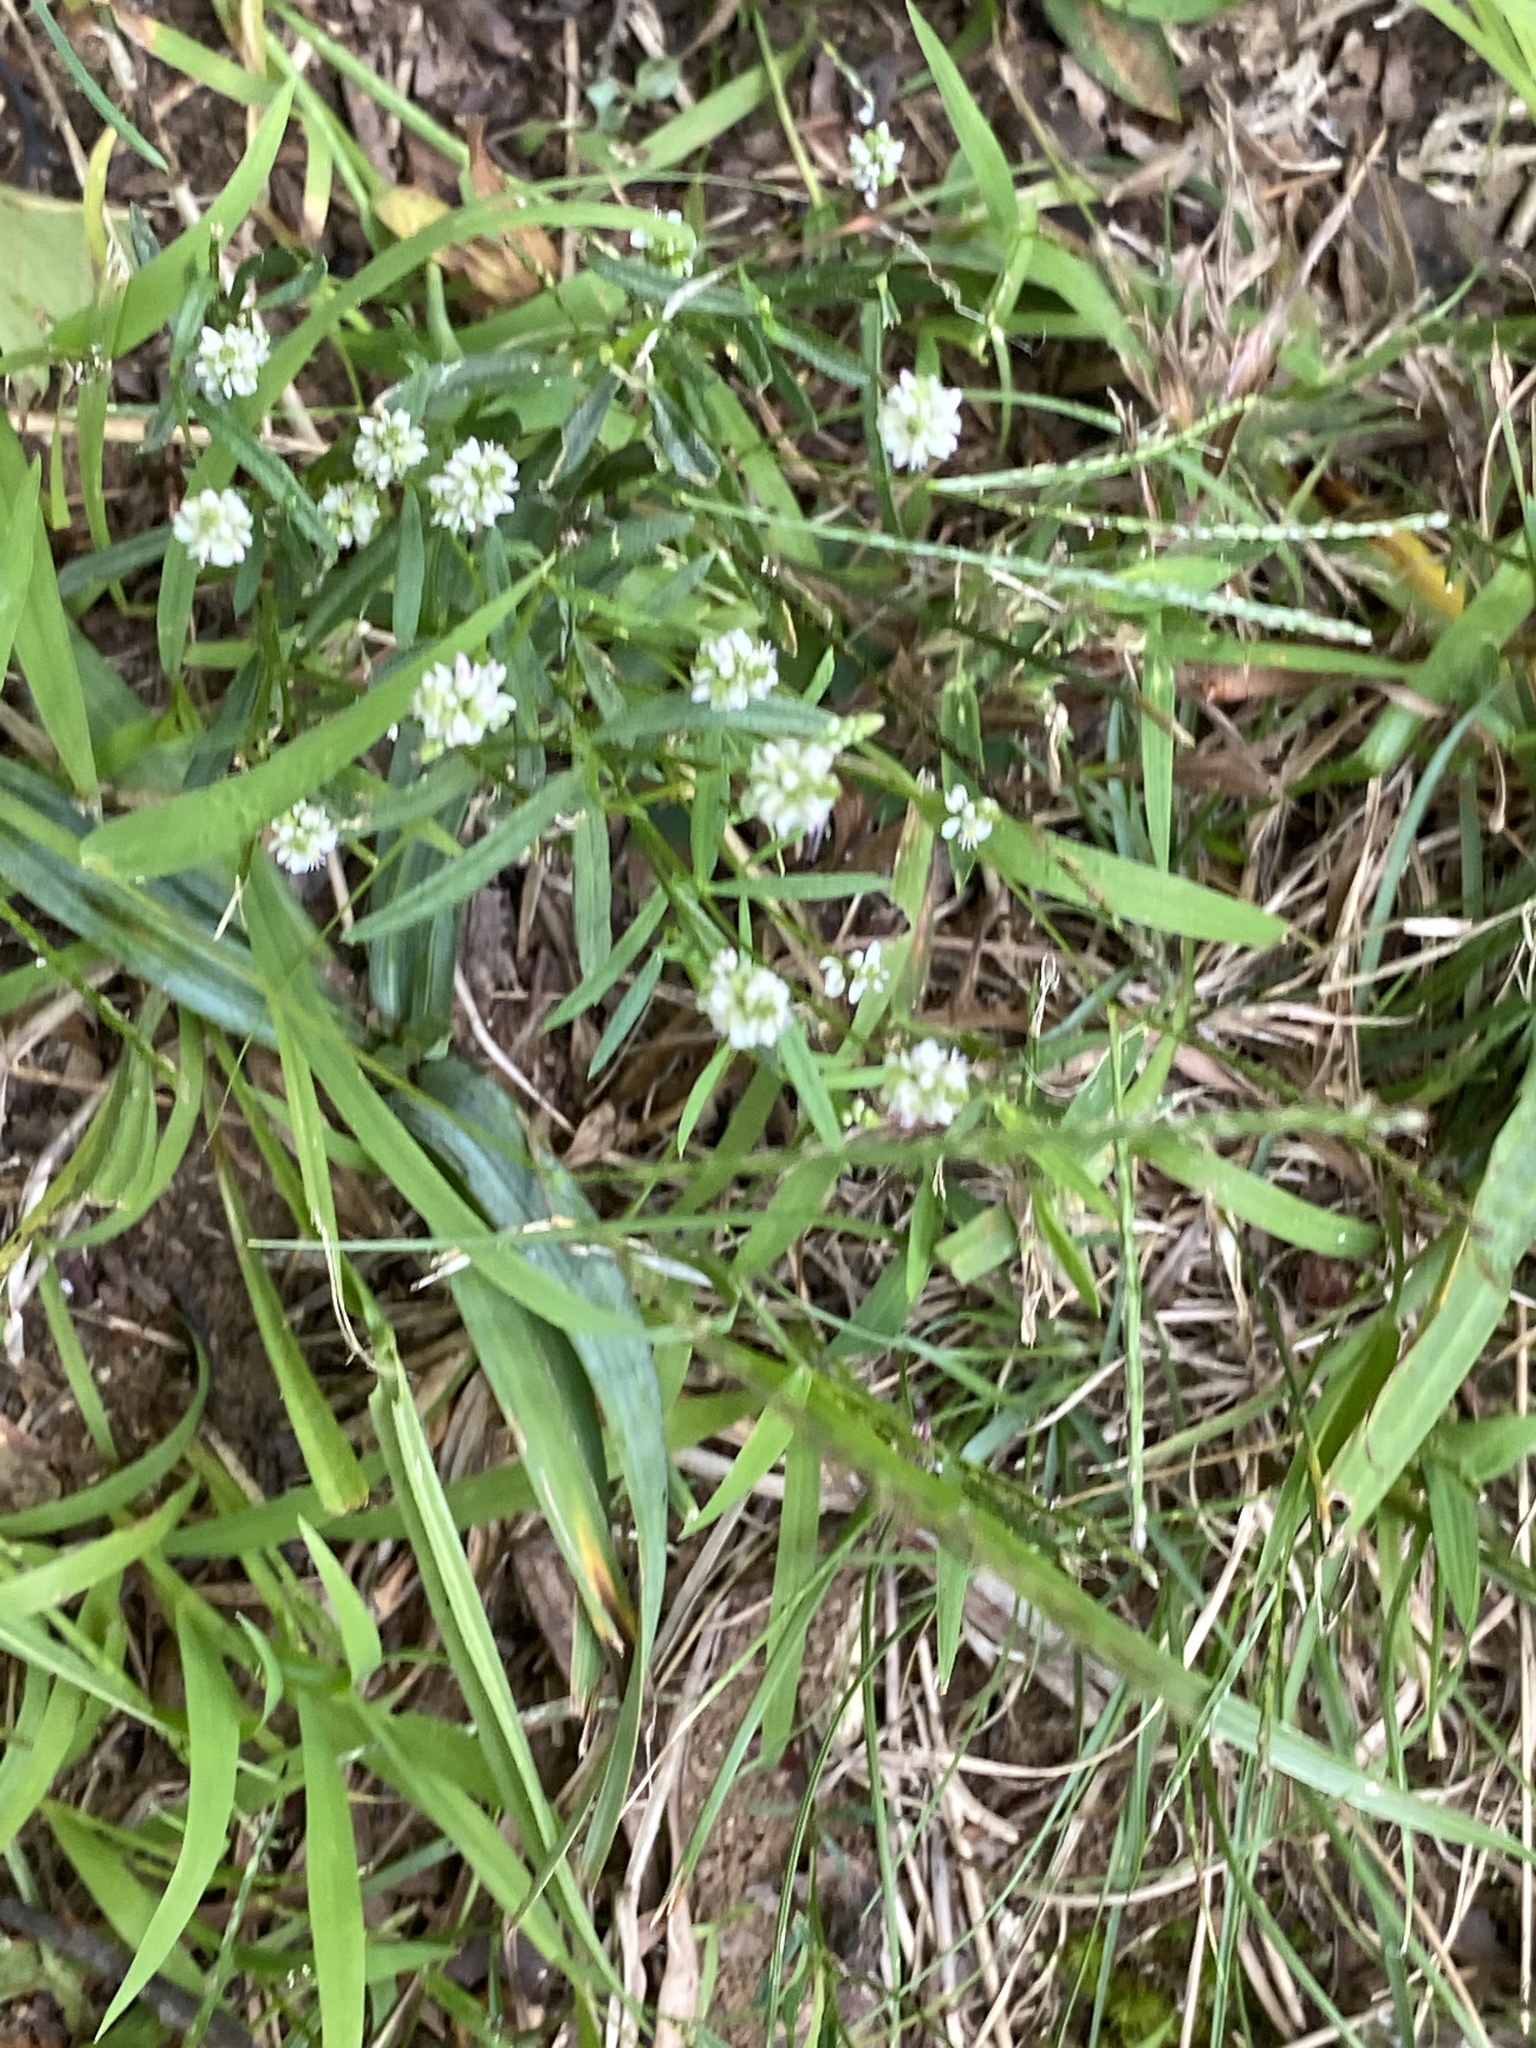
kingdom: Plantae
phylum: Tracheophyta
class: Magnoliopsida
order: Fabales
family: Polygalaceae
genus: Polygala
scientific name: Polygala sanguinea
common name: Blood milkwort
